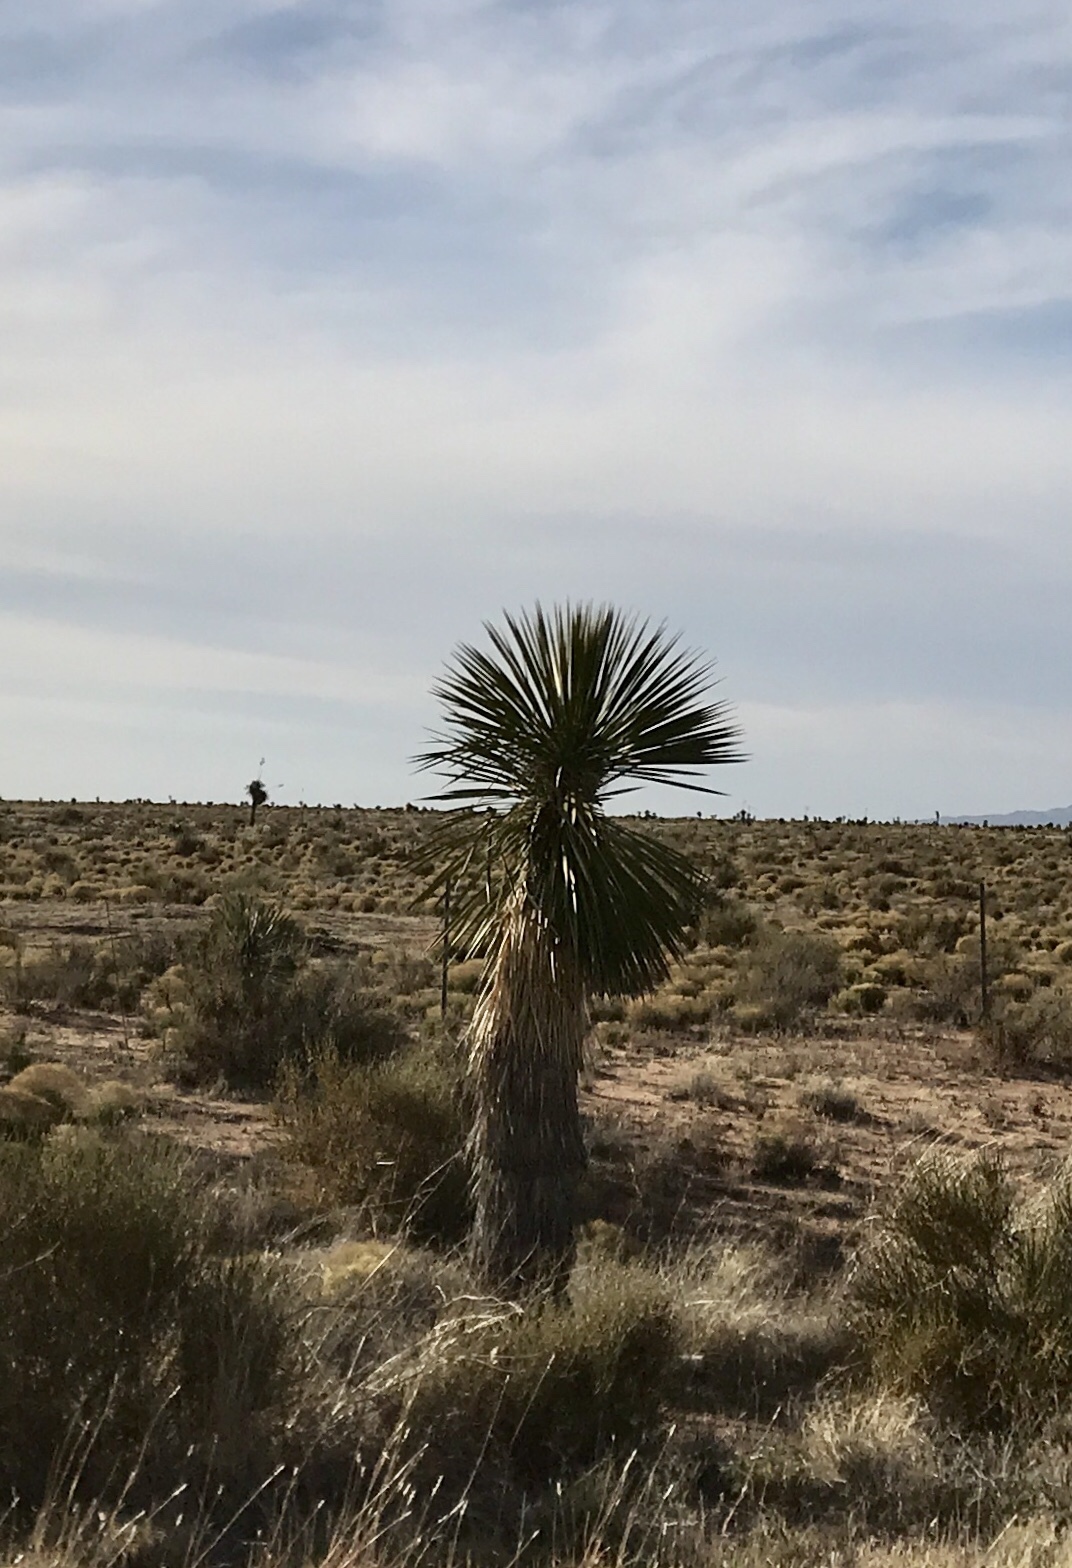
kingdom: Plantae
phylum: Tracheophyta
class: Liliopsida
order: Asparagales
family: Asparagaceae
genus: Yucca
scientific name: Yucca elata
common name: Palmella
